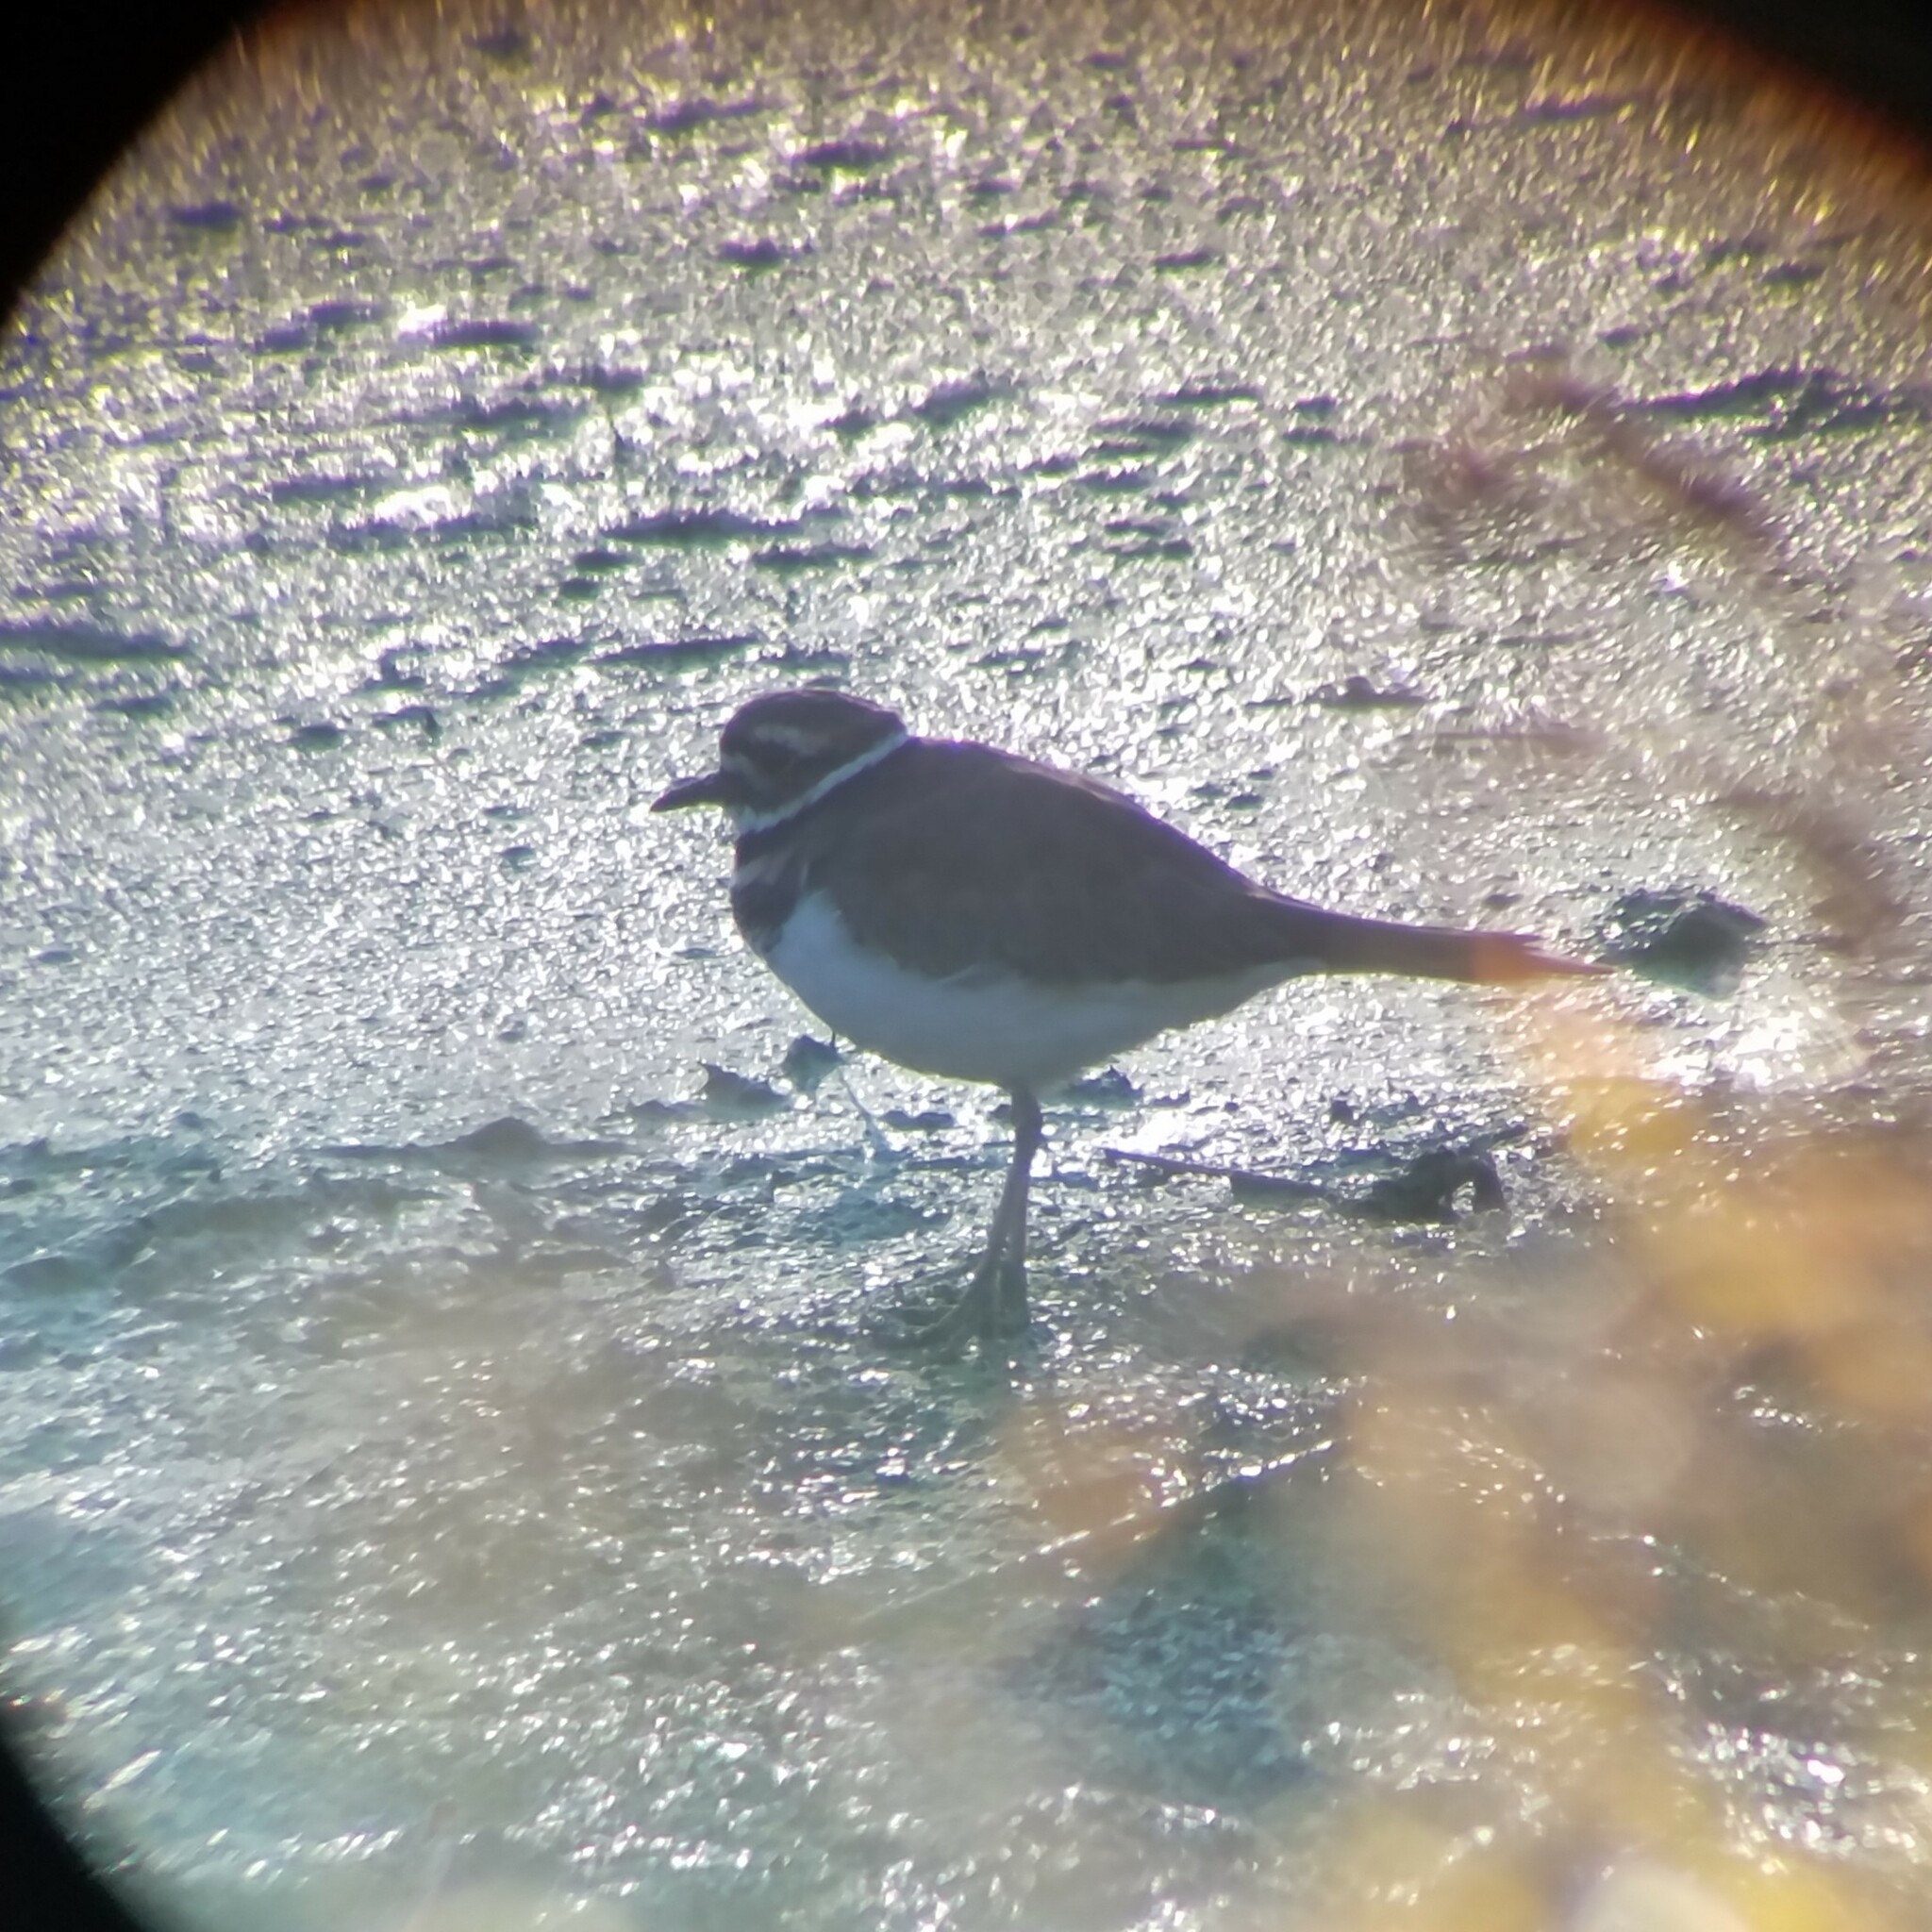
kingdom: Animalia
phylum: Chordata
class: Aves
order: Charadriiformes
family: Charadriidae
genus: Charadrius
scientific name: Charadrius vociferus
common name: Killdeer
